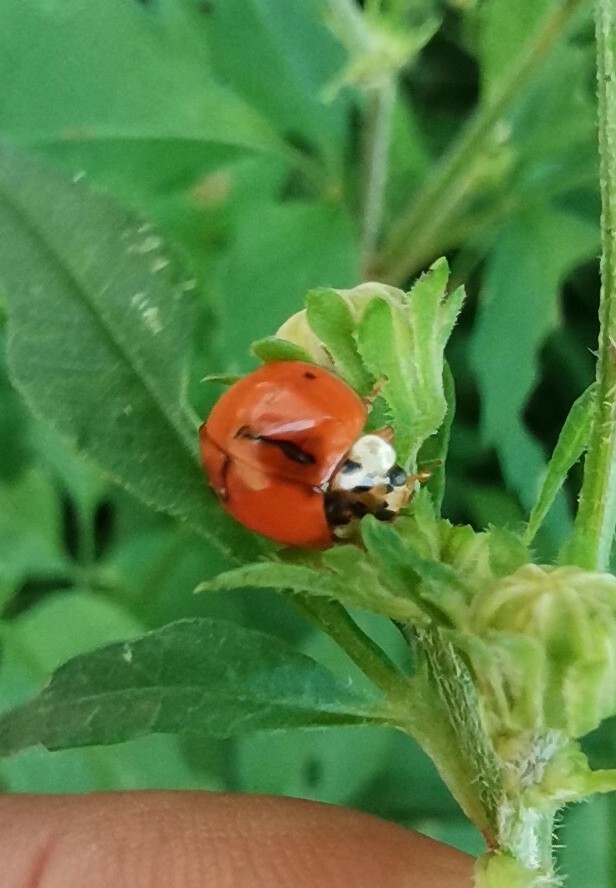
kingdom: Animalia
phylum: Arthropoda
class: Insecta
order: Coleoptera
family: Coccinellidae
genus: Harmonia
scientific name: Harmonia axyridis
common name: Harlequin ladybird
